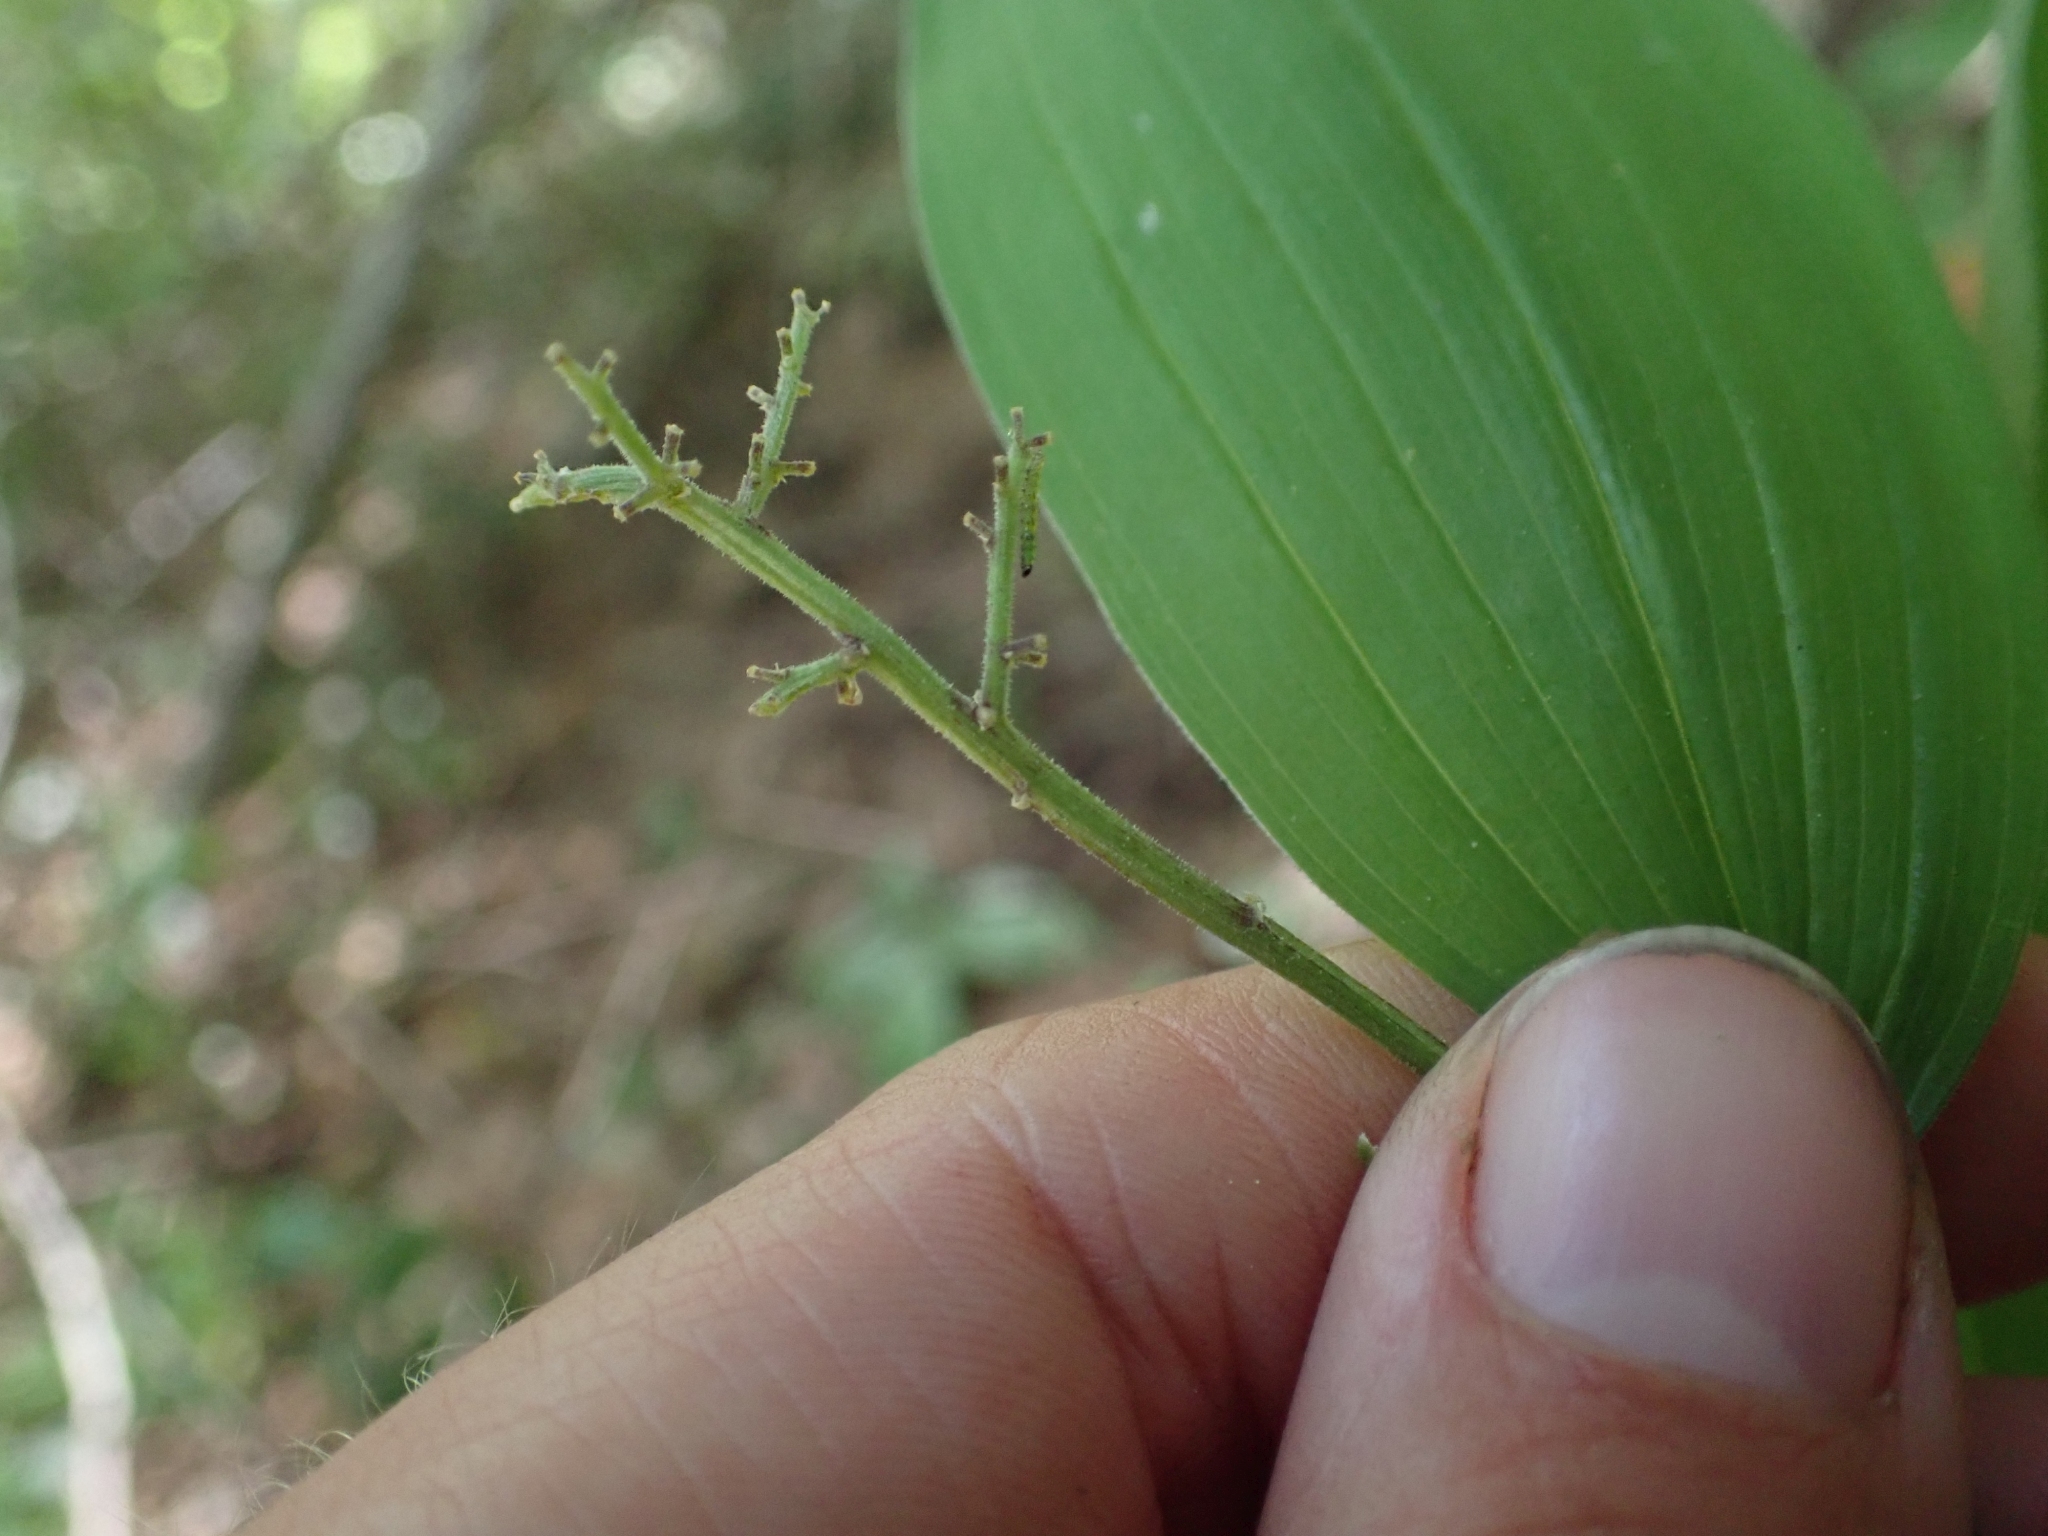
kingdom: Plantae
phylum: Tracheophyta
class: Liliopsida
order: Asparagales
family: Asparagaceae
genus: Maianthemum
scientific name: Maianthemum racemosum
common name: False spikenard
